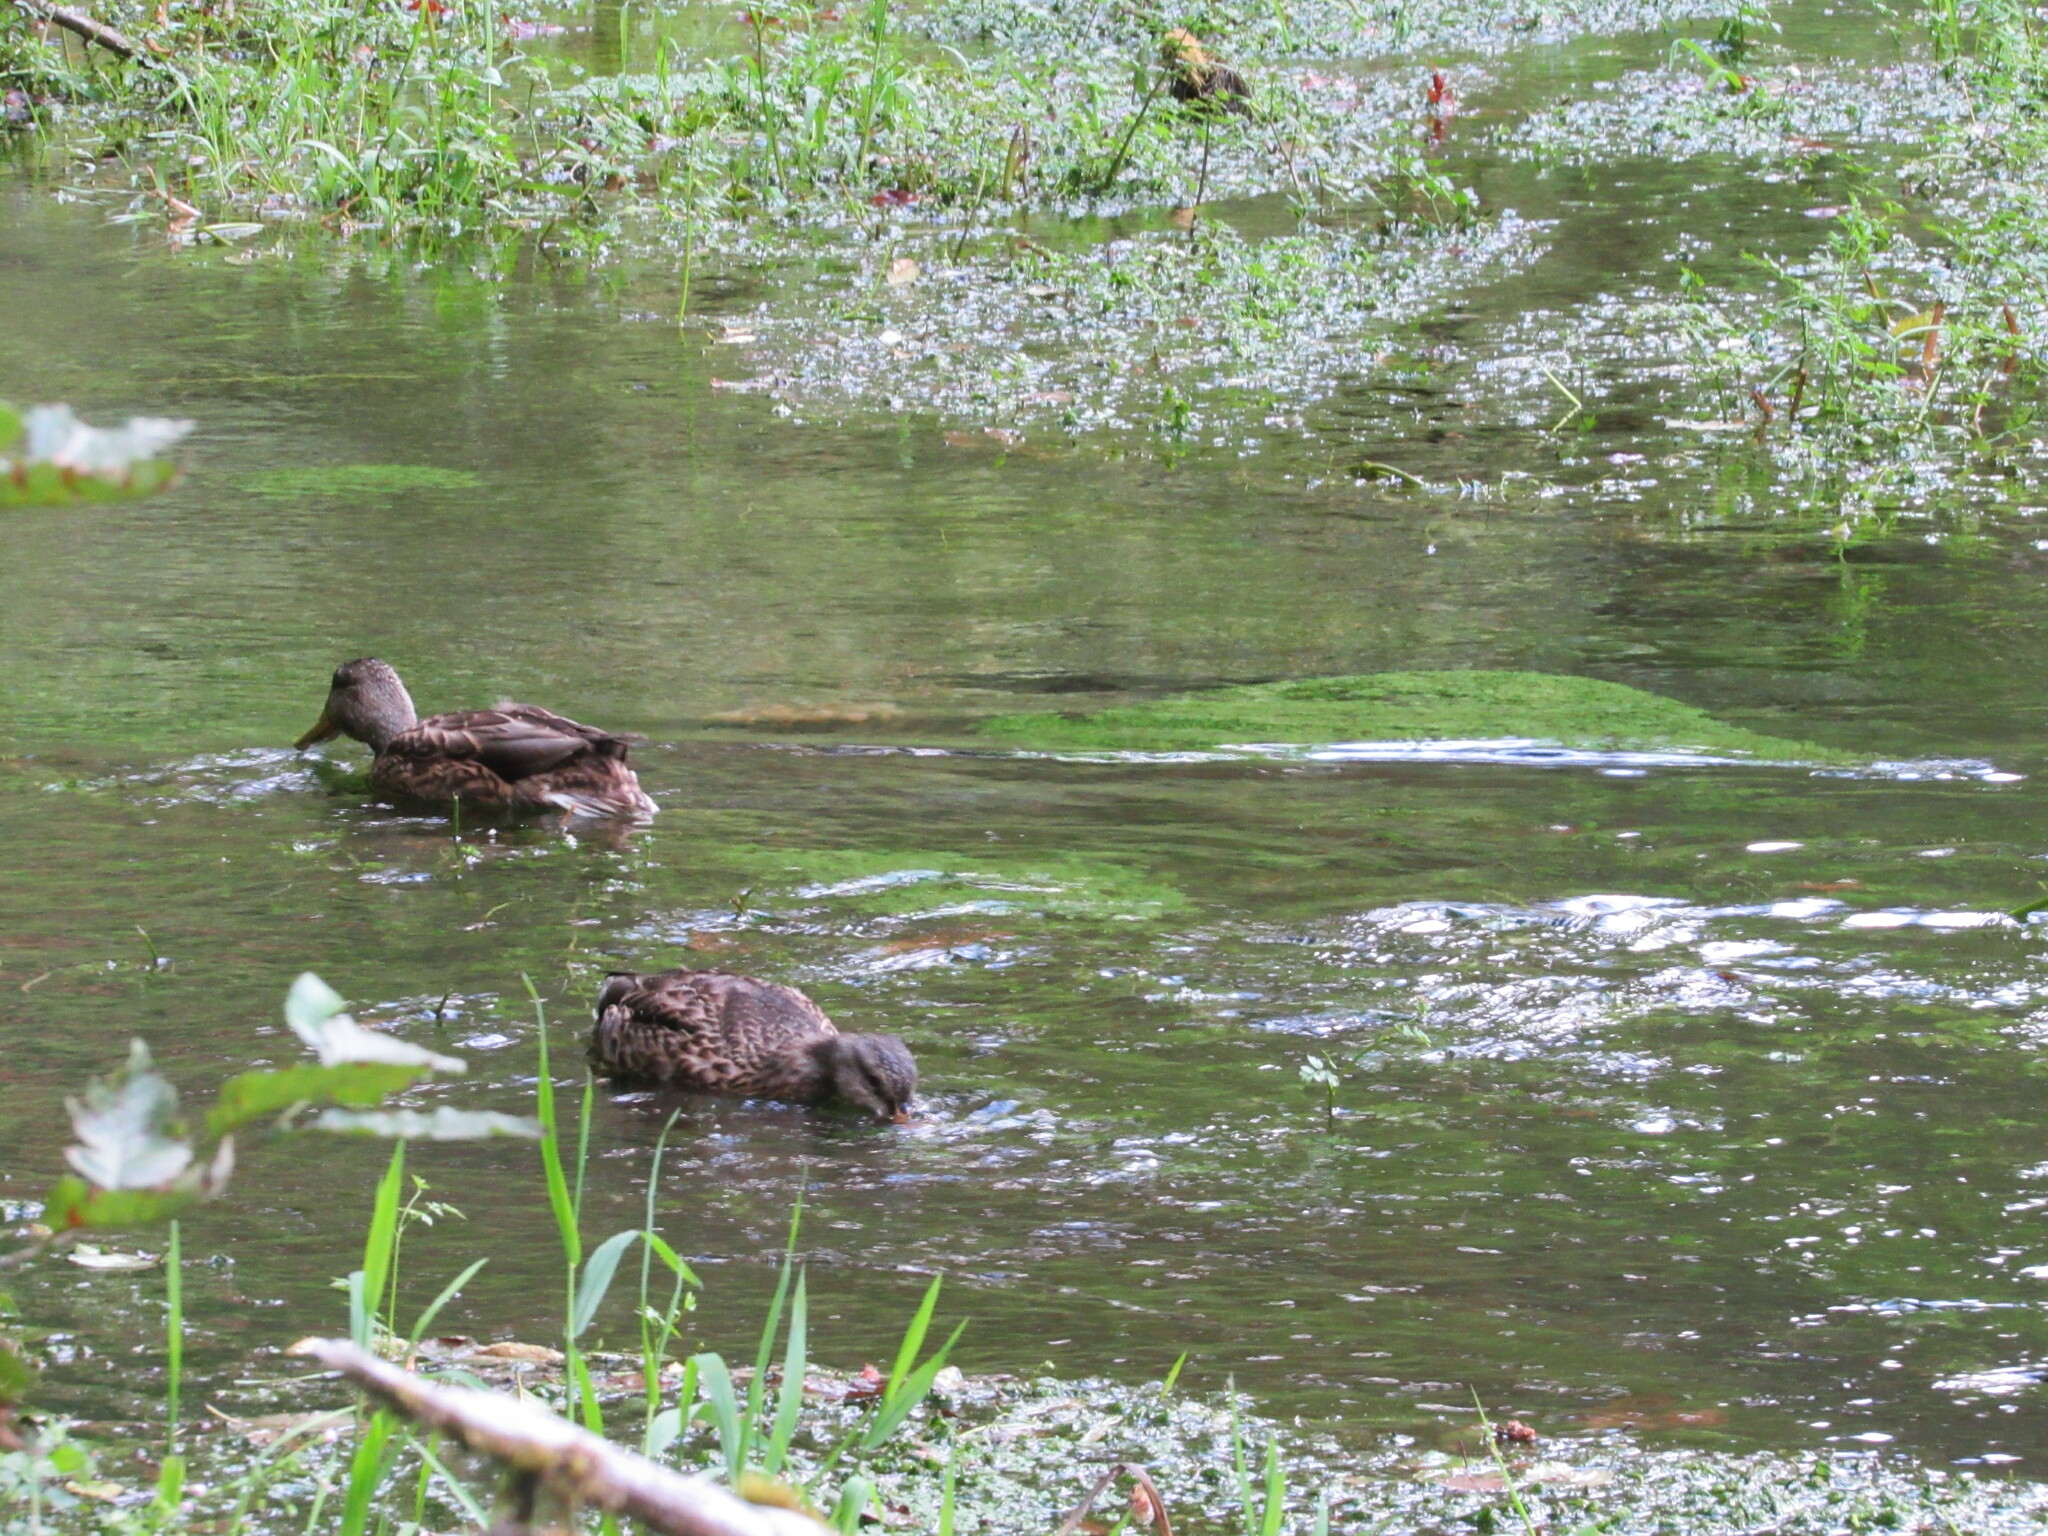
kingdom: Animalia
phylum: Chordata
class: Aves
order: Anseriformes
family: Anatidae
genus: Anas
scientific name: Anas platyrhynchos
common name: Mallard
